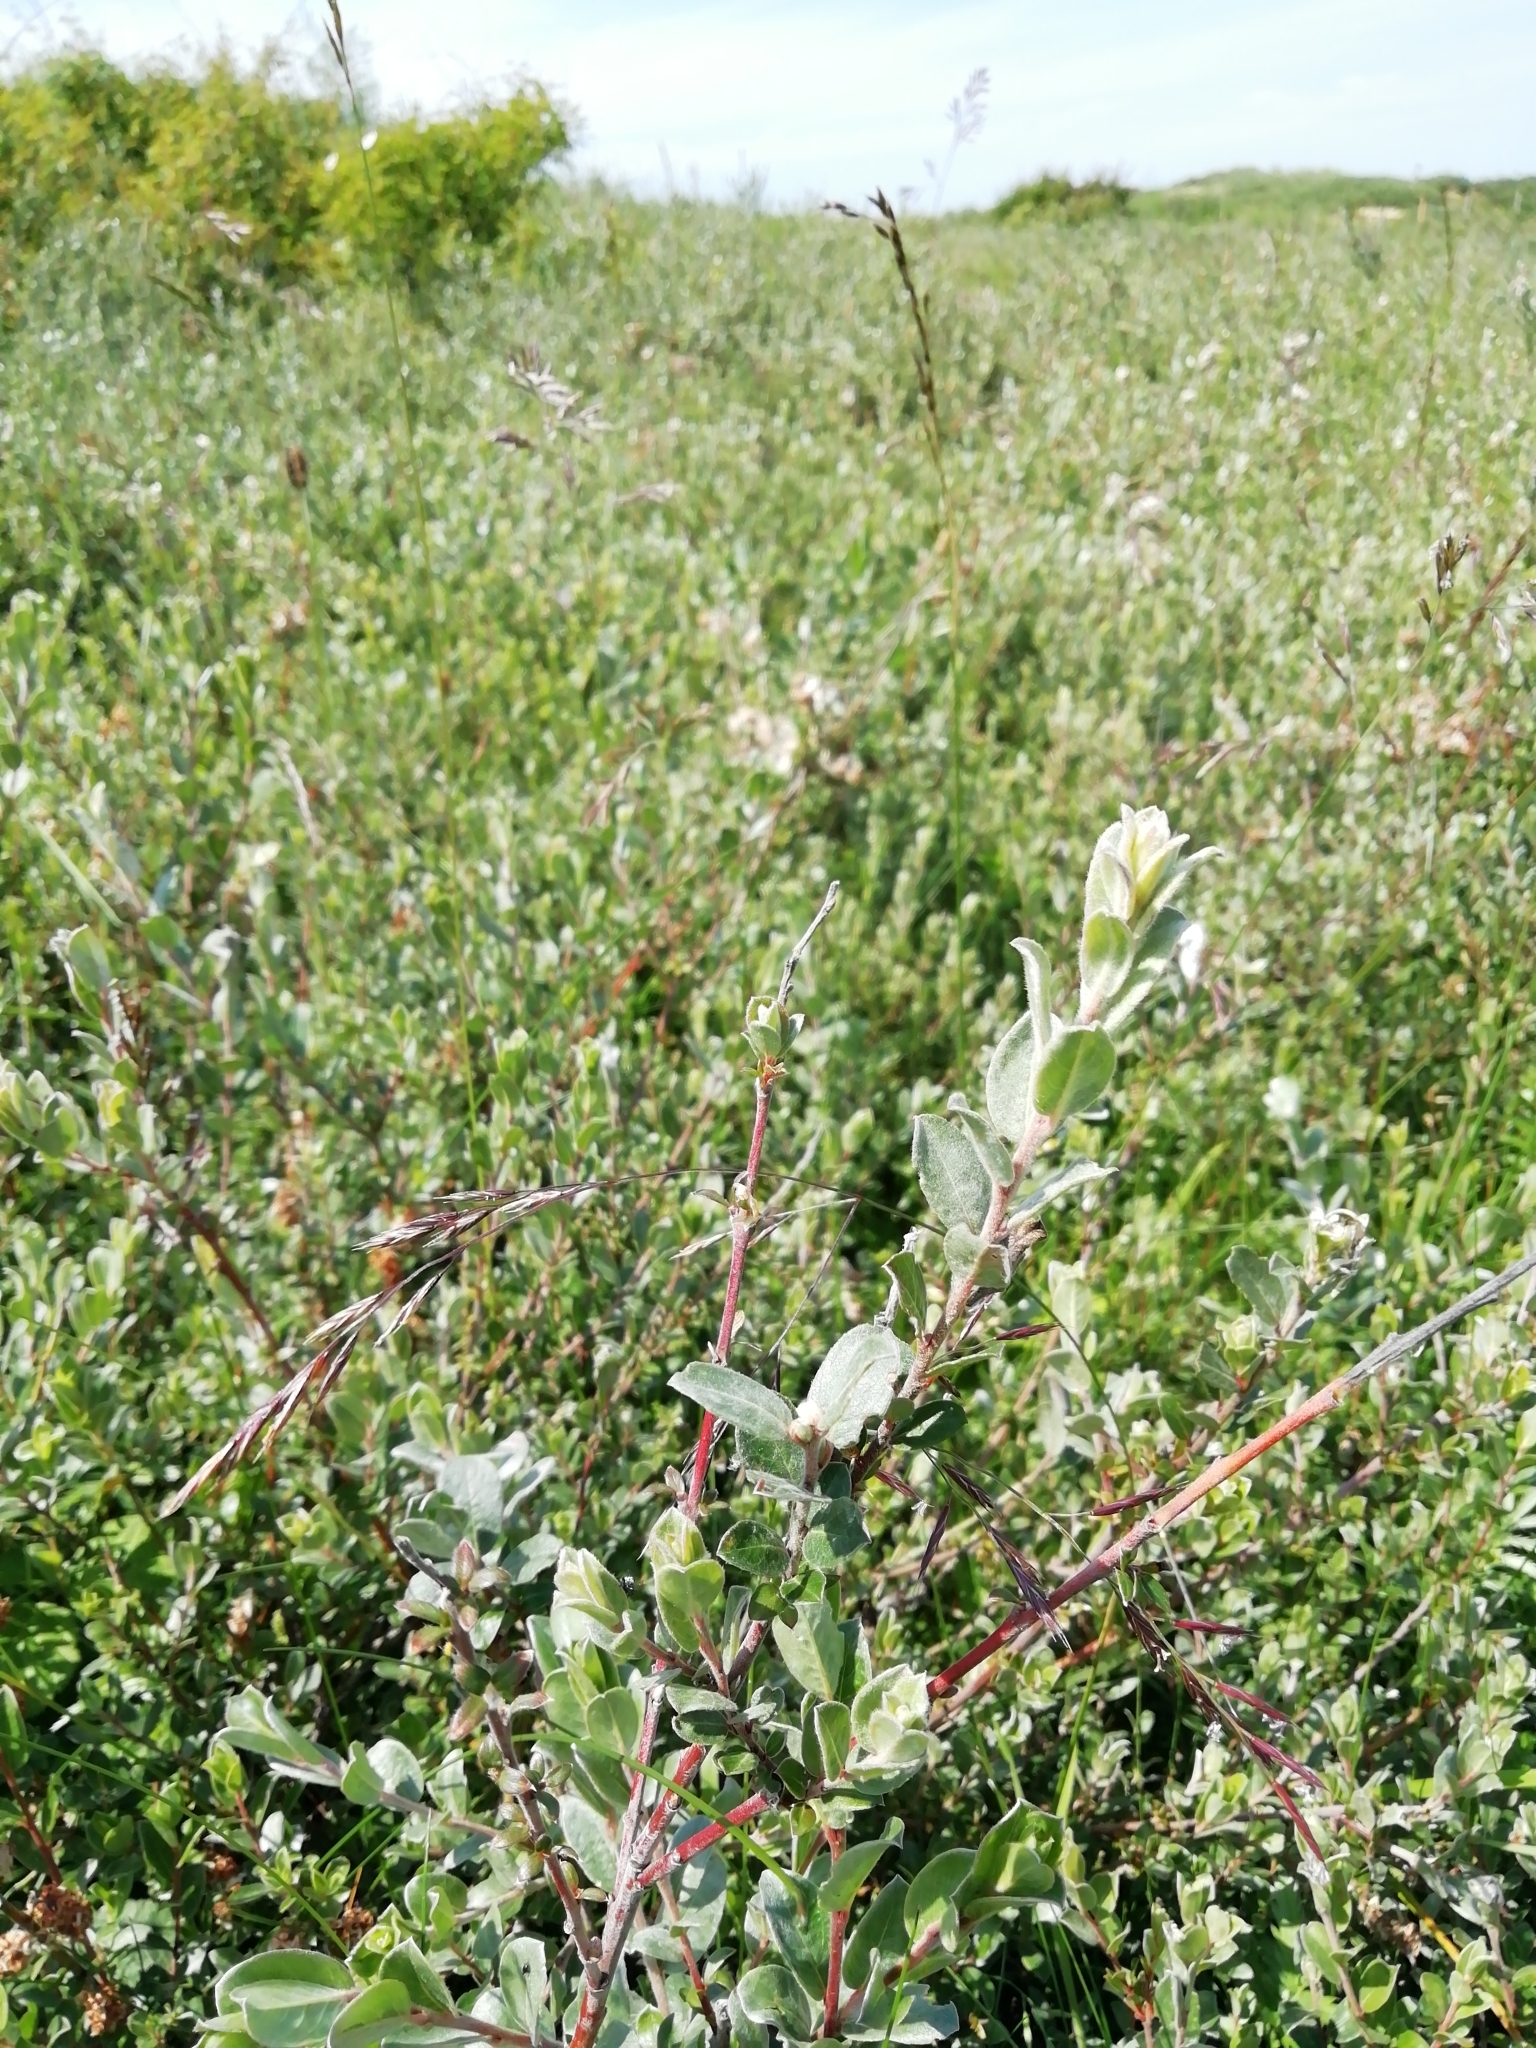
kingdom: Plantae
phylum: Tracheophyta
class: Magnoliopsida
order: Malpighiales
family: Salicaceae
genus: Salix
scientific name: Salix repens
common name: Creeping willow
